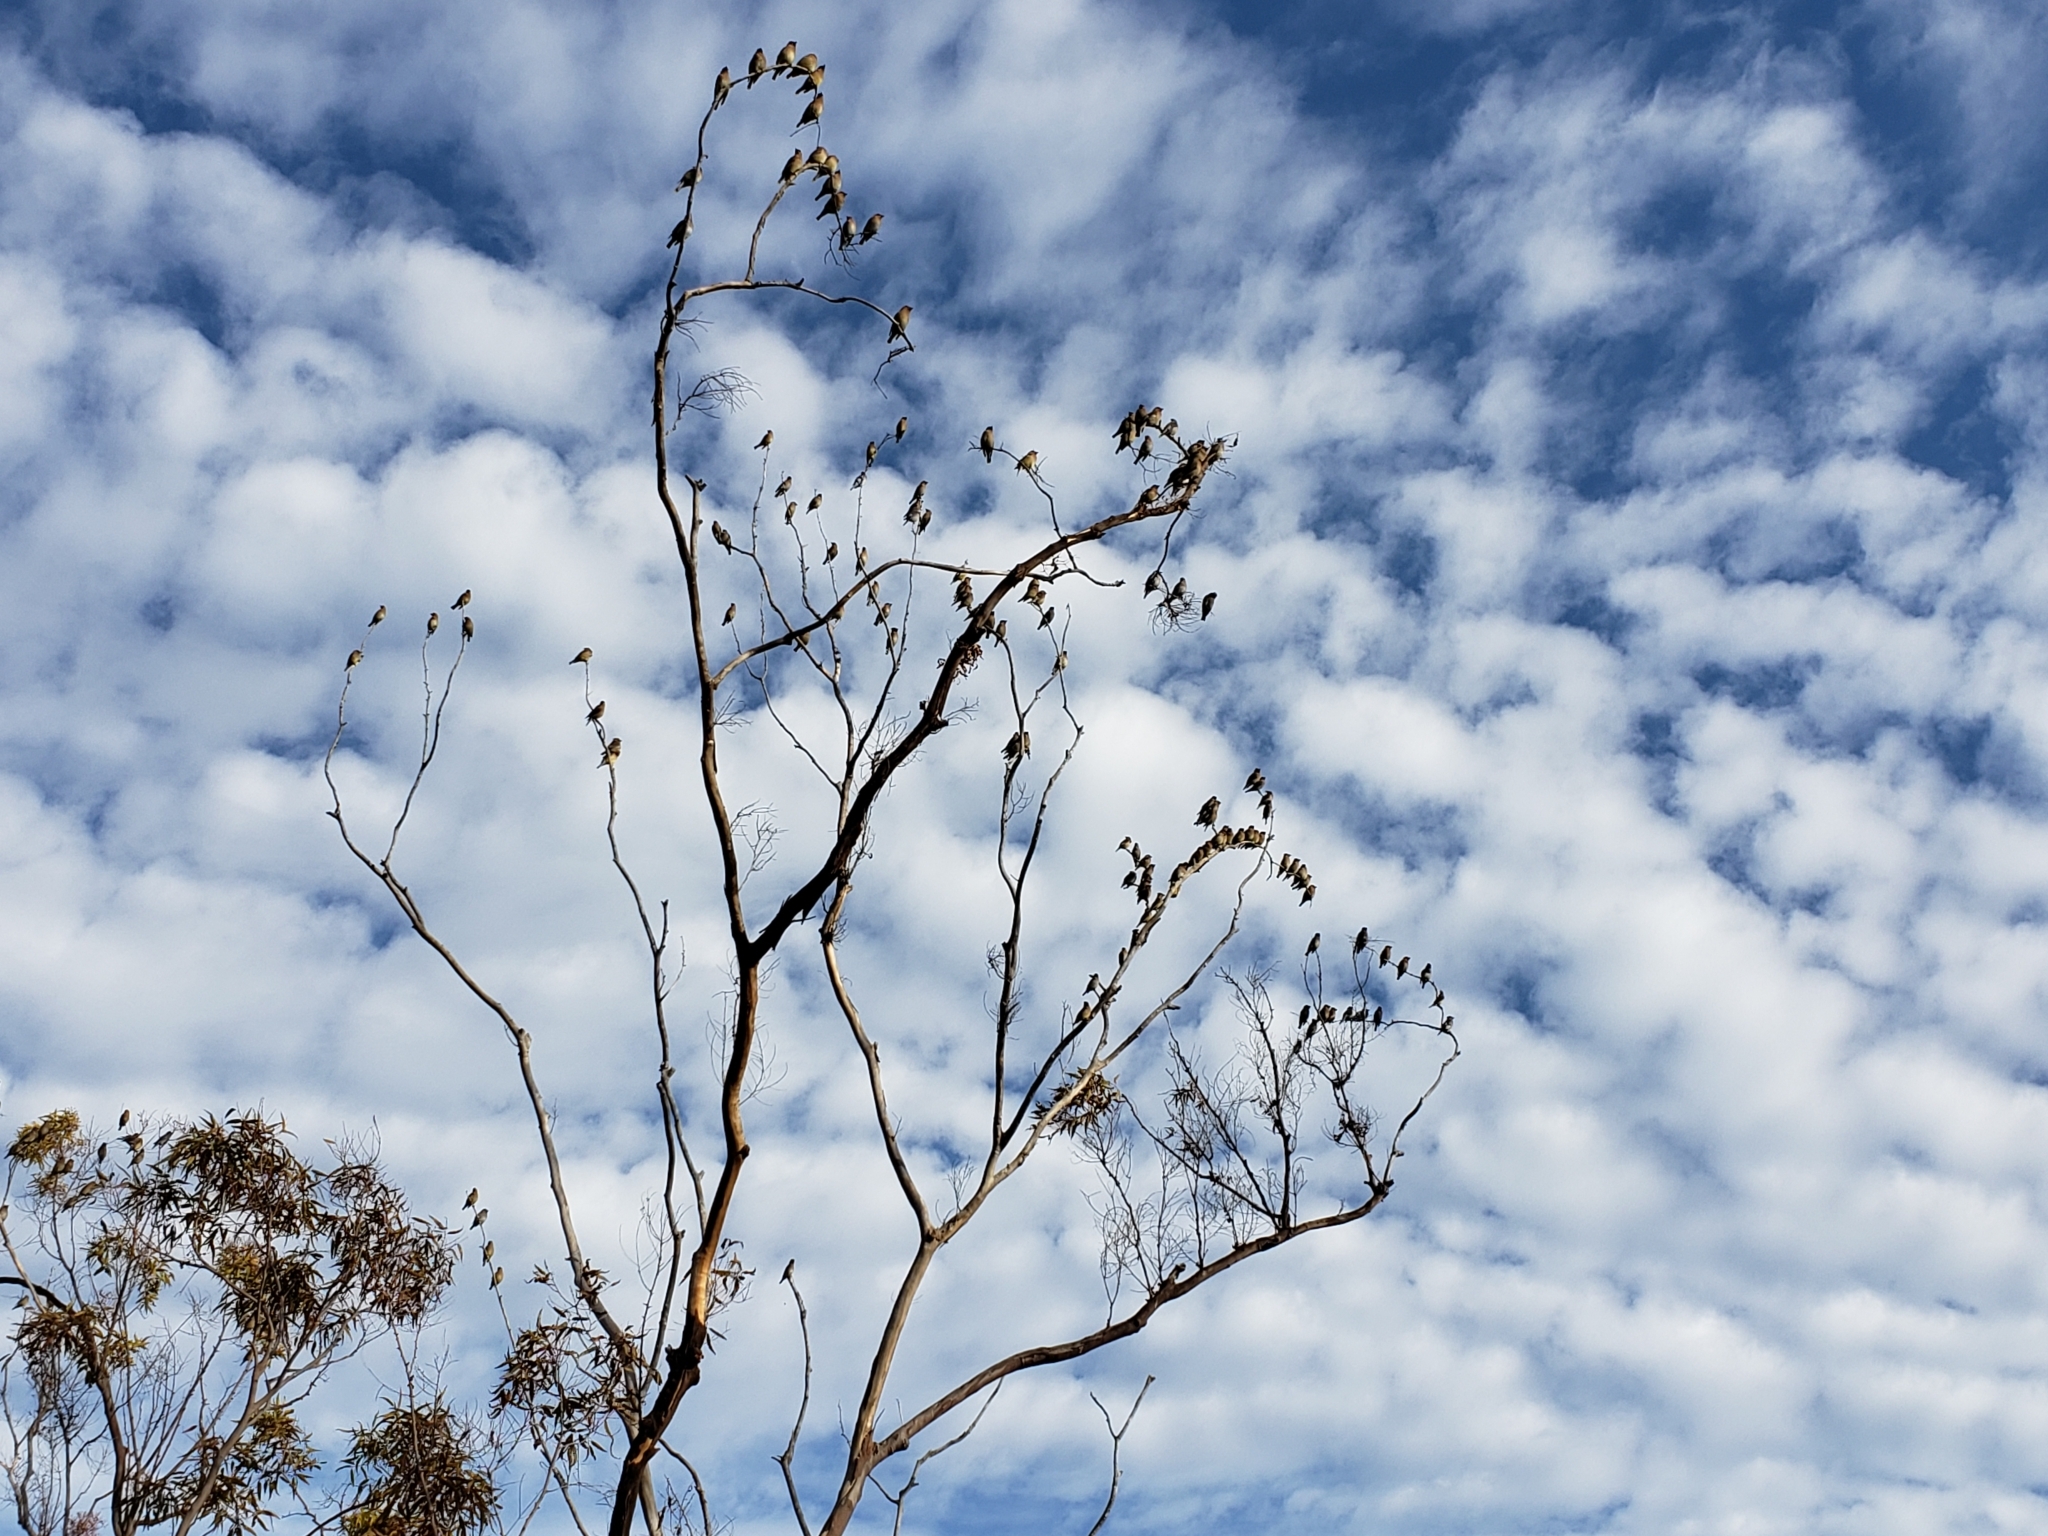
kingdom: Animalia
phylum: Chordata
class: Aves
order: Passeriformes
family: Bombycillidae
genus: Bombycilla
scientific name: Bombycilla cedrorum
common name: Cedar waxwing
